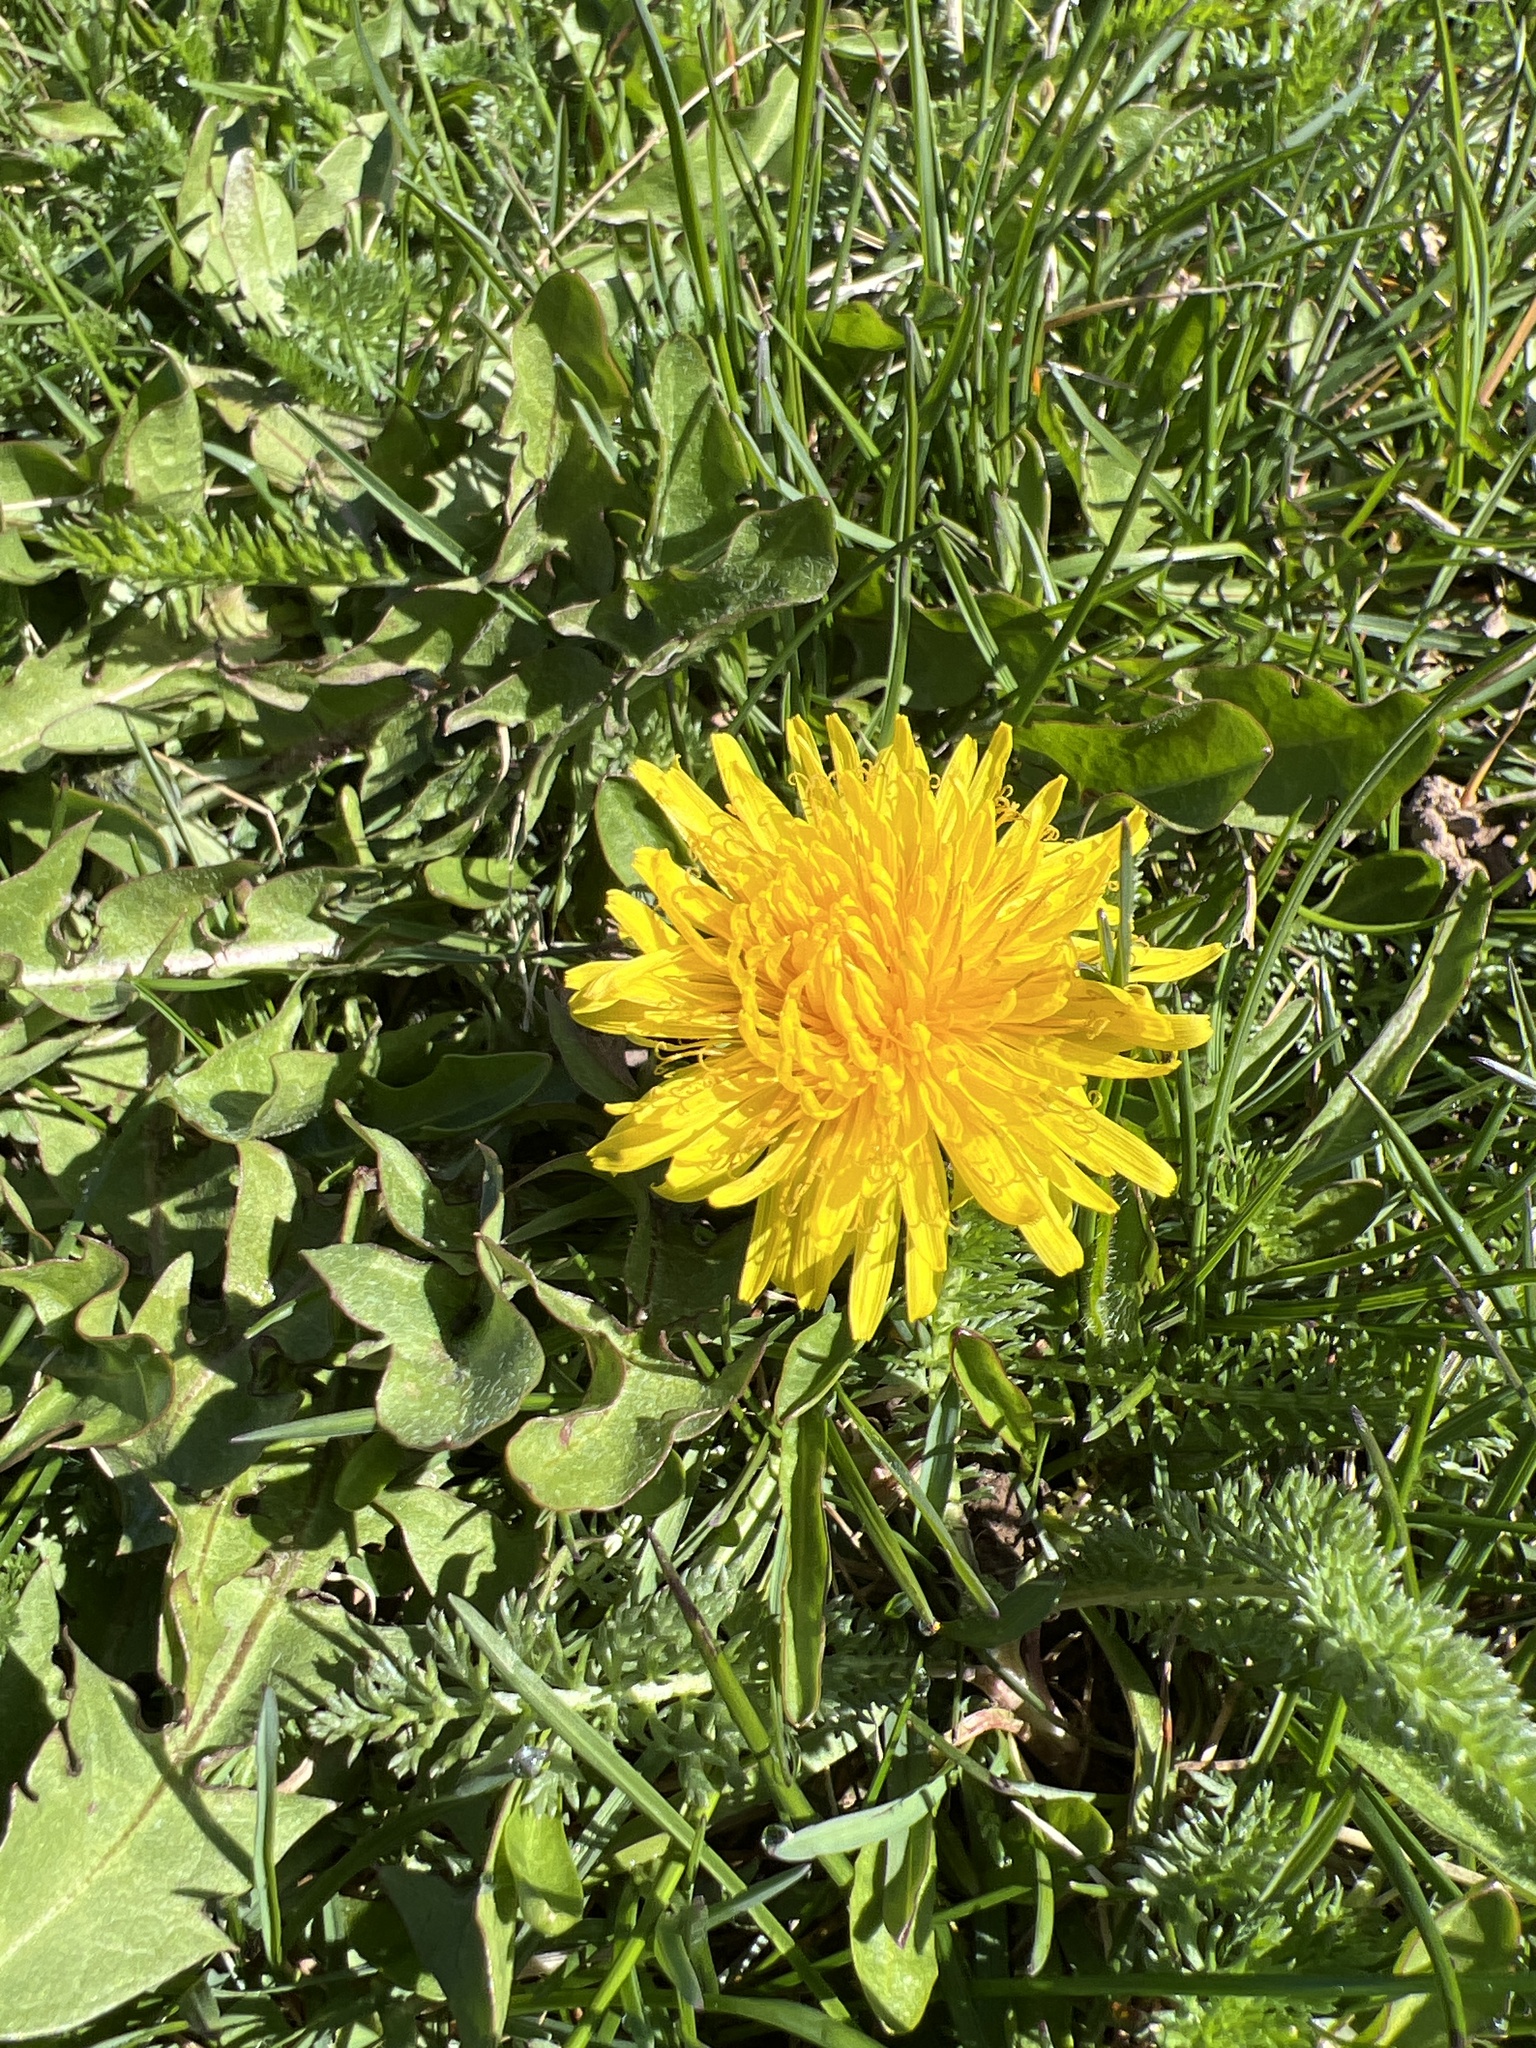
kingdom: Plantae
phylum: Tracheophyta
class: Magnoliopsida
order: Asterales
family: Asteraceae
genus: Taraxacum
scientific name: Taraxacum officinale
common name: Common dandelion
